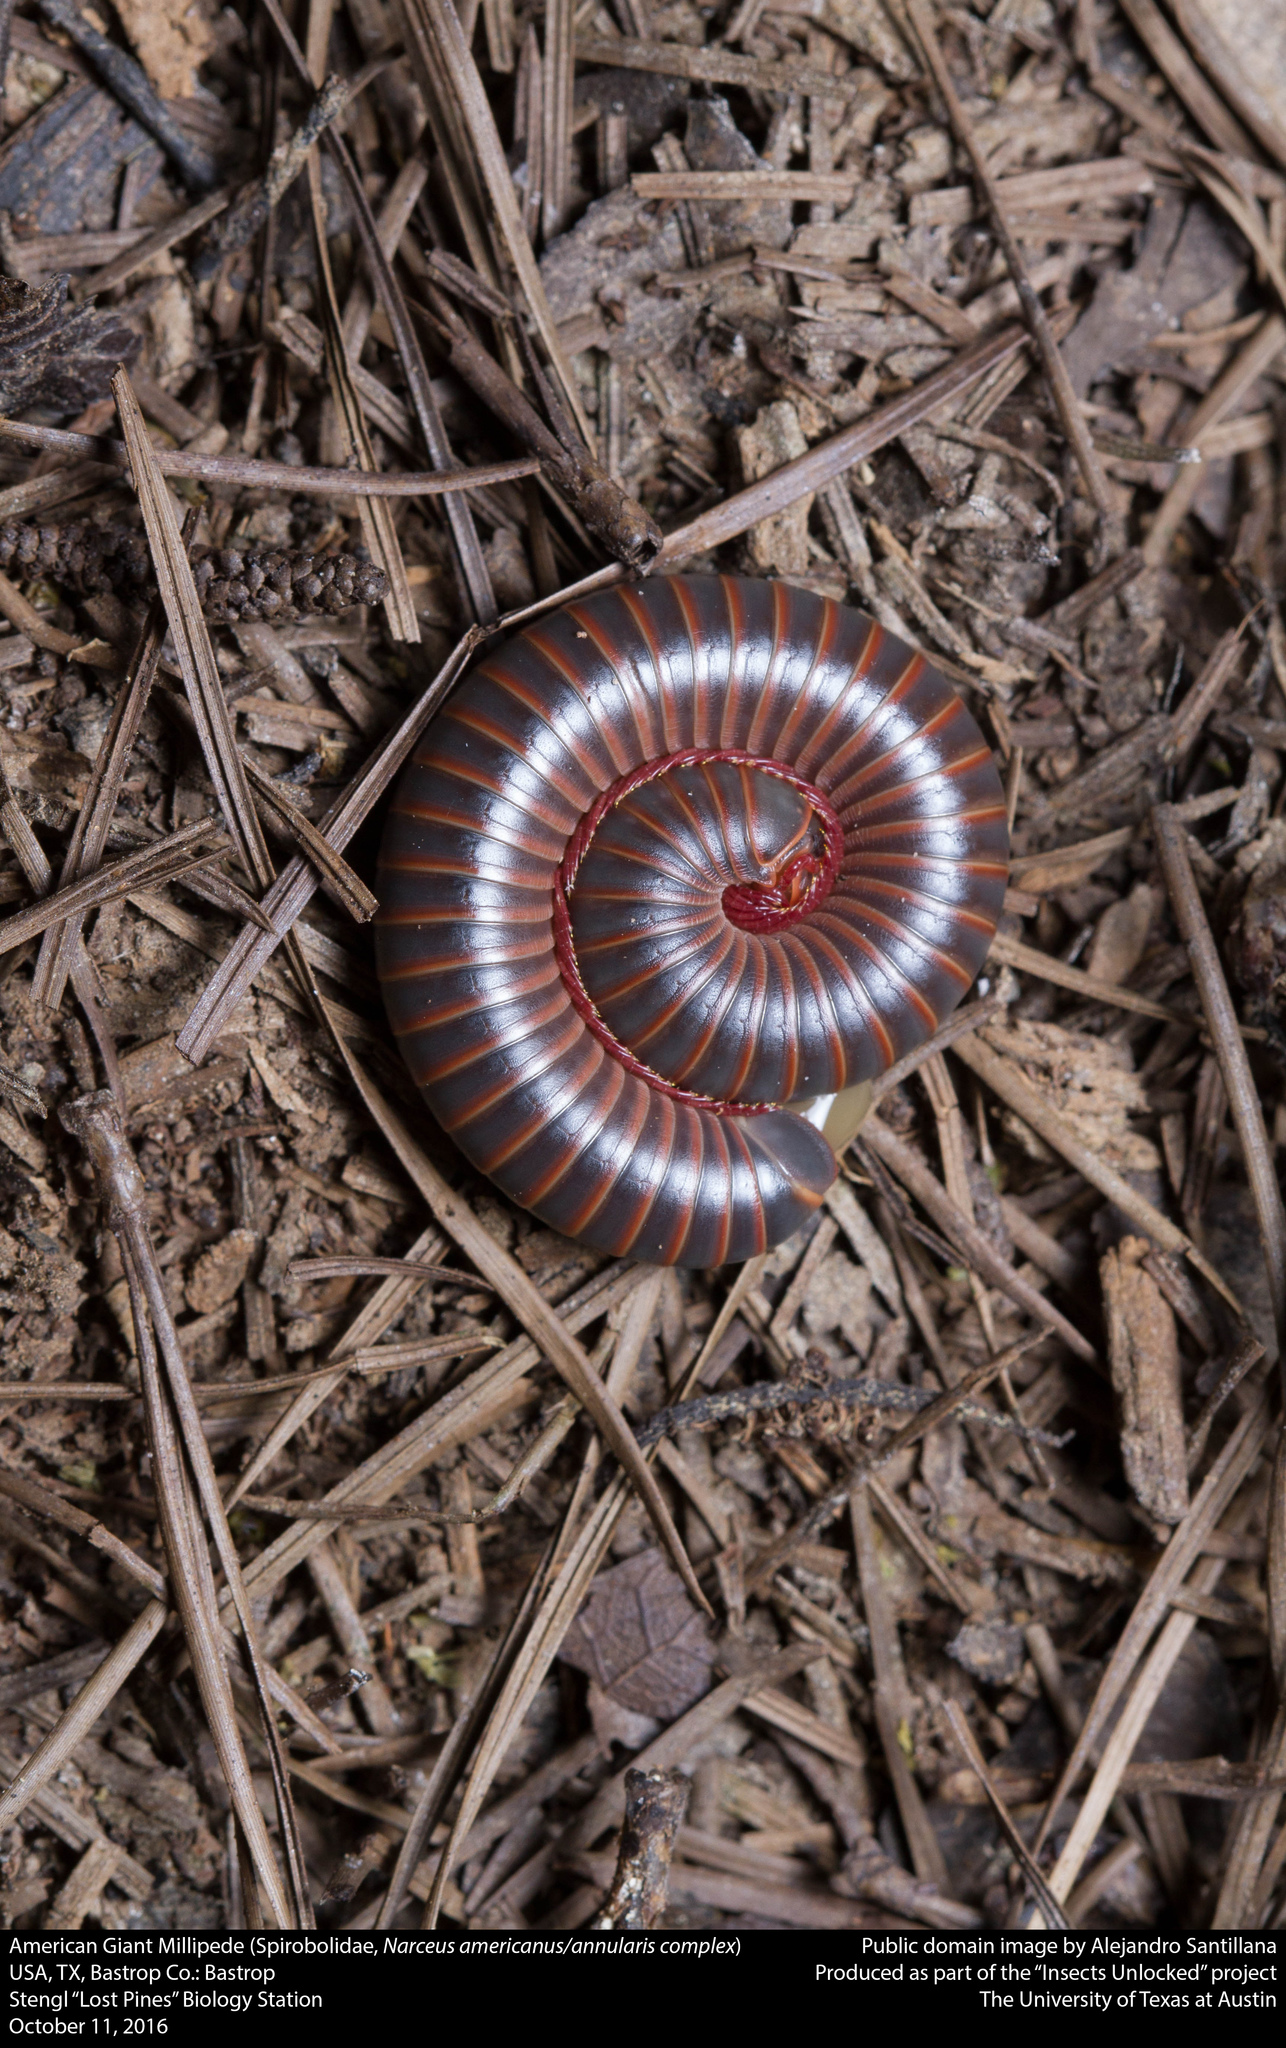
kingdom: Animalia
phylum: Arthropoda
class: Diplopoda
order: Spirobolida
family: Spirobolidae
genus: Narceus
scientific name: Narceus
